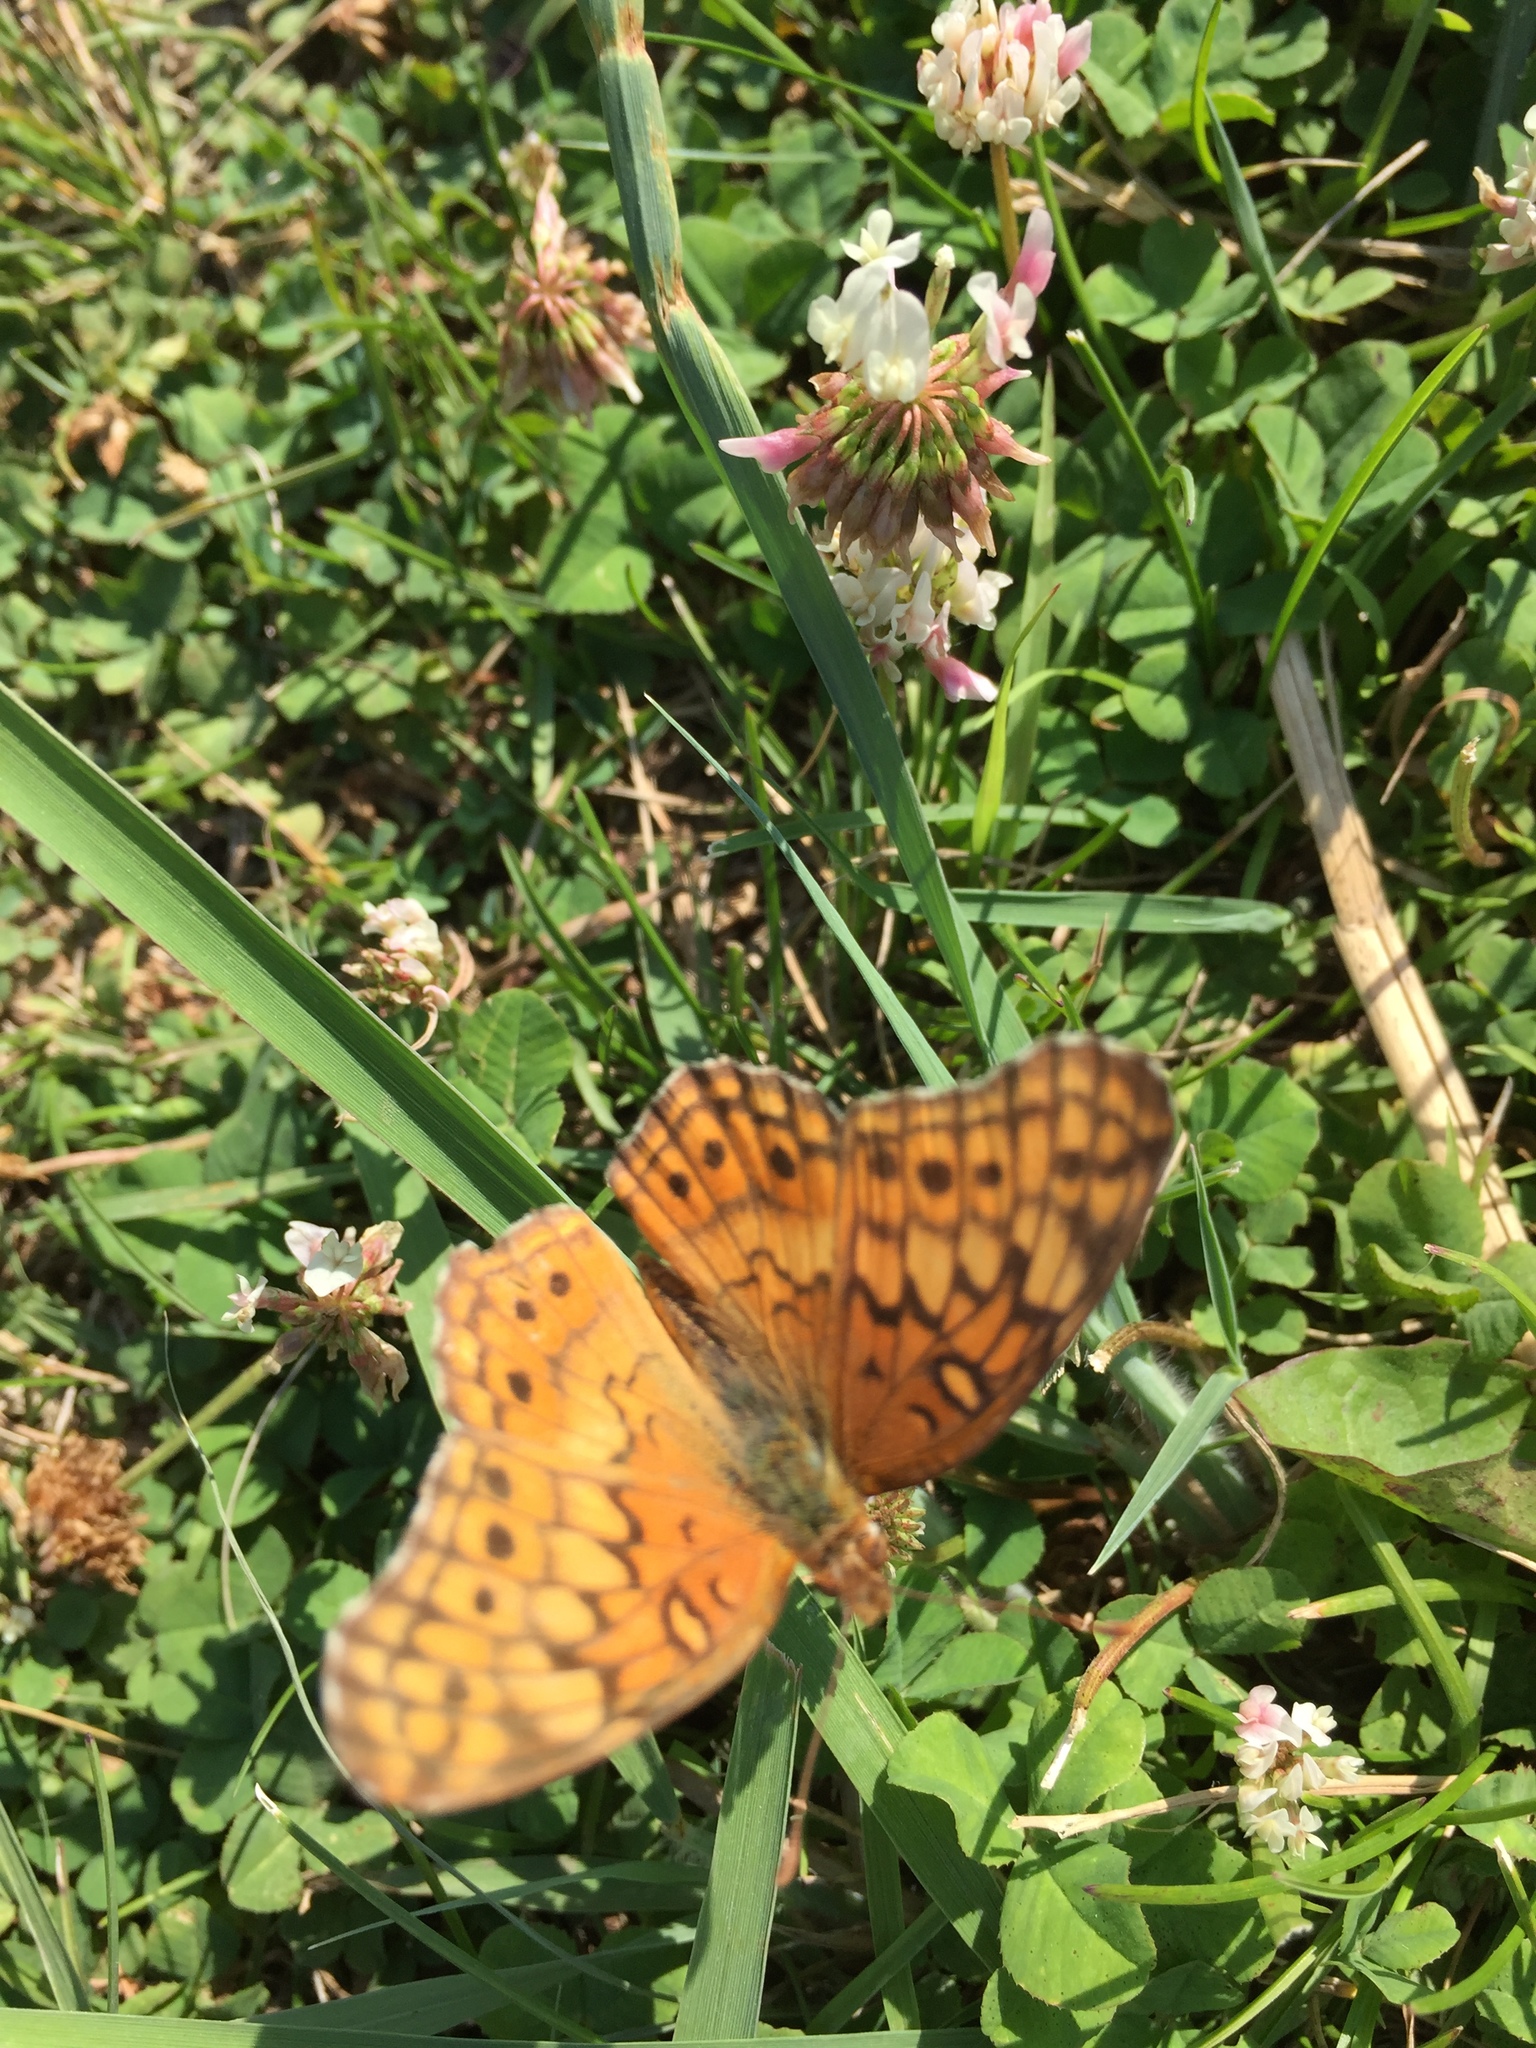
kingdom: Animalia
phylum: Arthropoda
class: Insecta
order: Lepidoptera
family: Nymphalidae
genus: Euptoieta
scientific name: Euptoieta claudia
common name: Variegated fritillary
